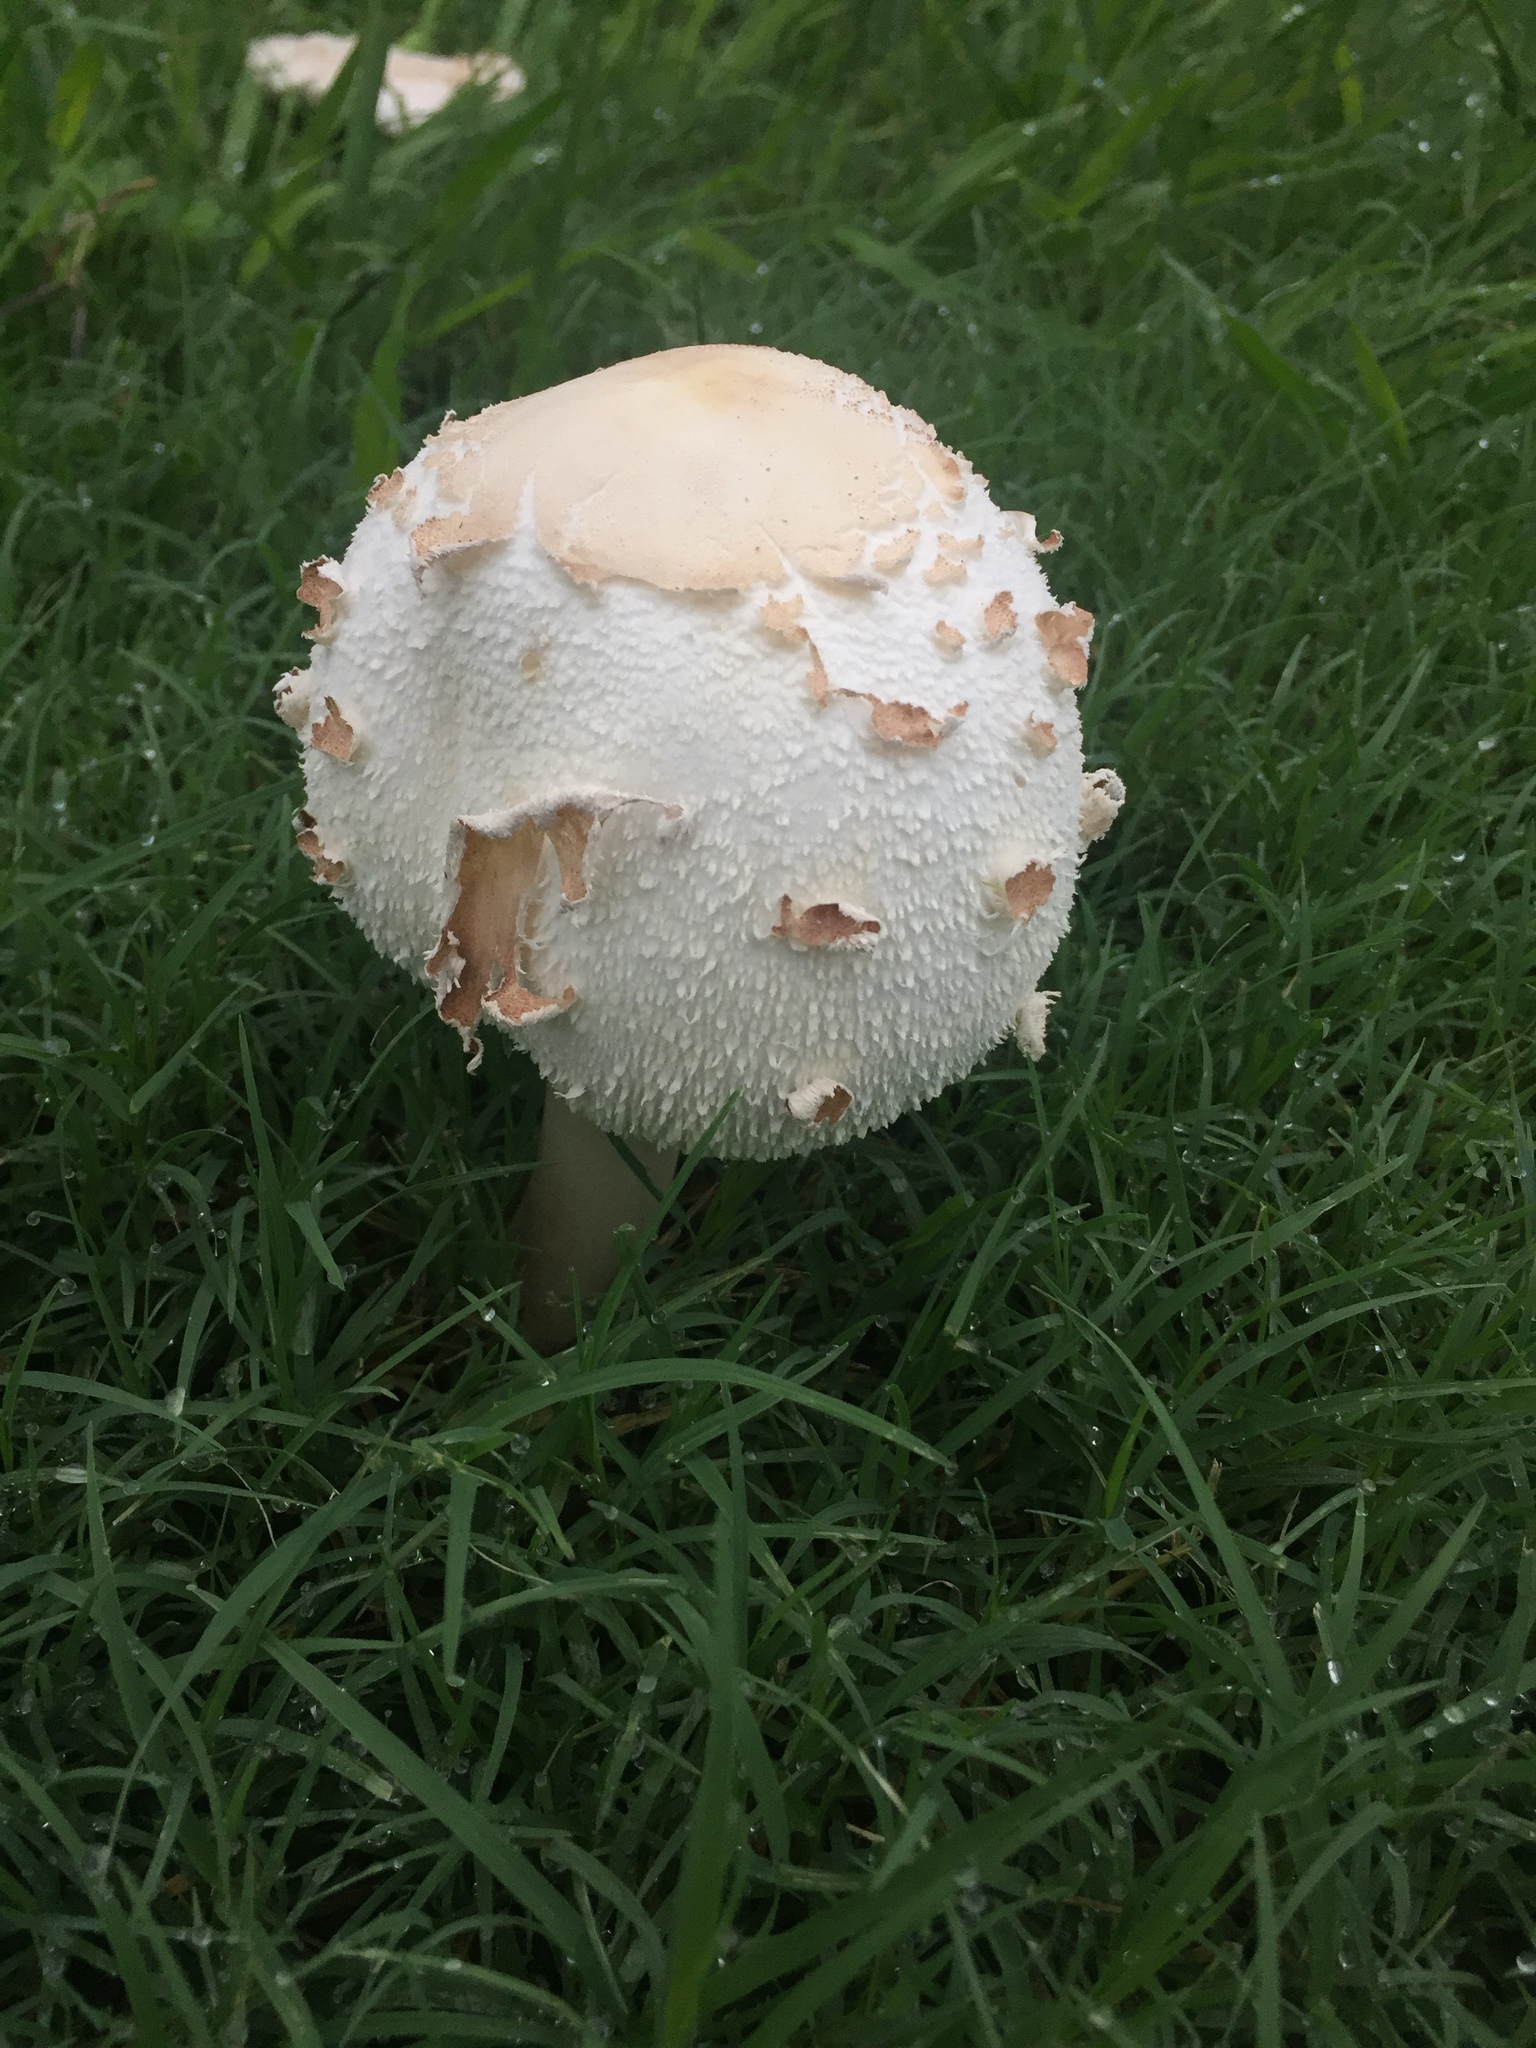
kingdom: Fungi
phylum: Basidiomycota
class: Agaricomycetes
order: Agaricales
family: Agaricaceae
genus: Chlorophyllum
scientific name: Chlorophyllum molybdites
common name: False parasol
